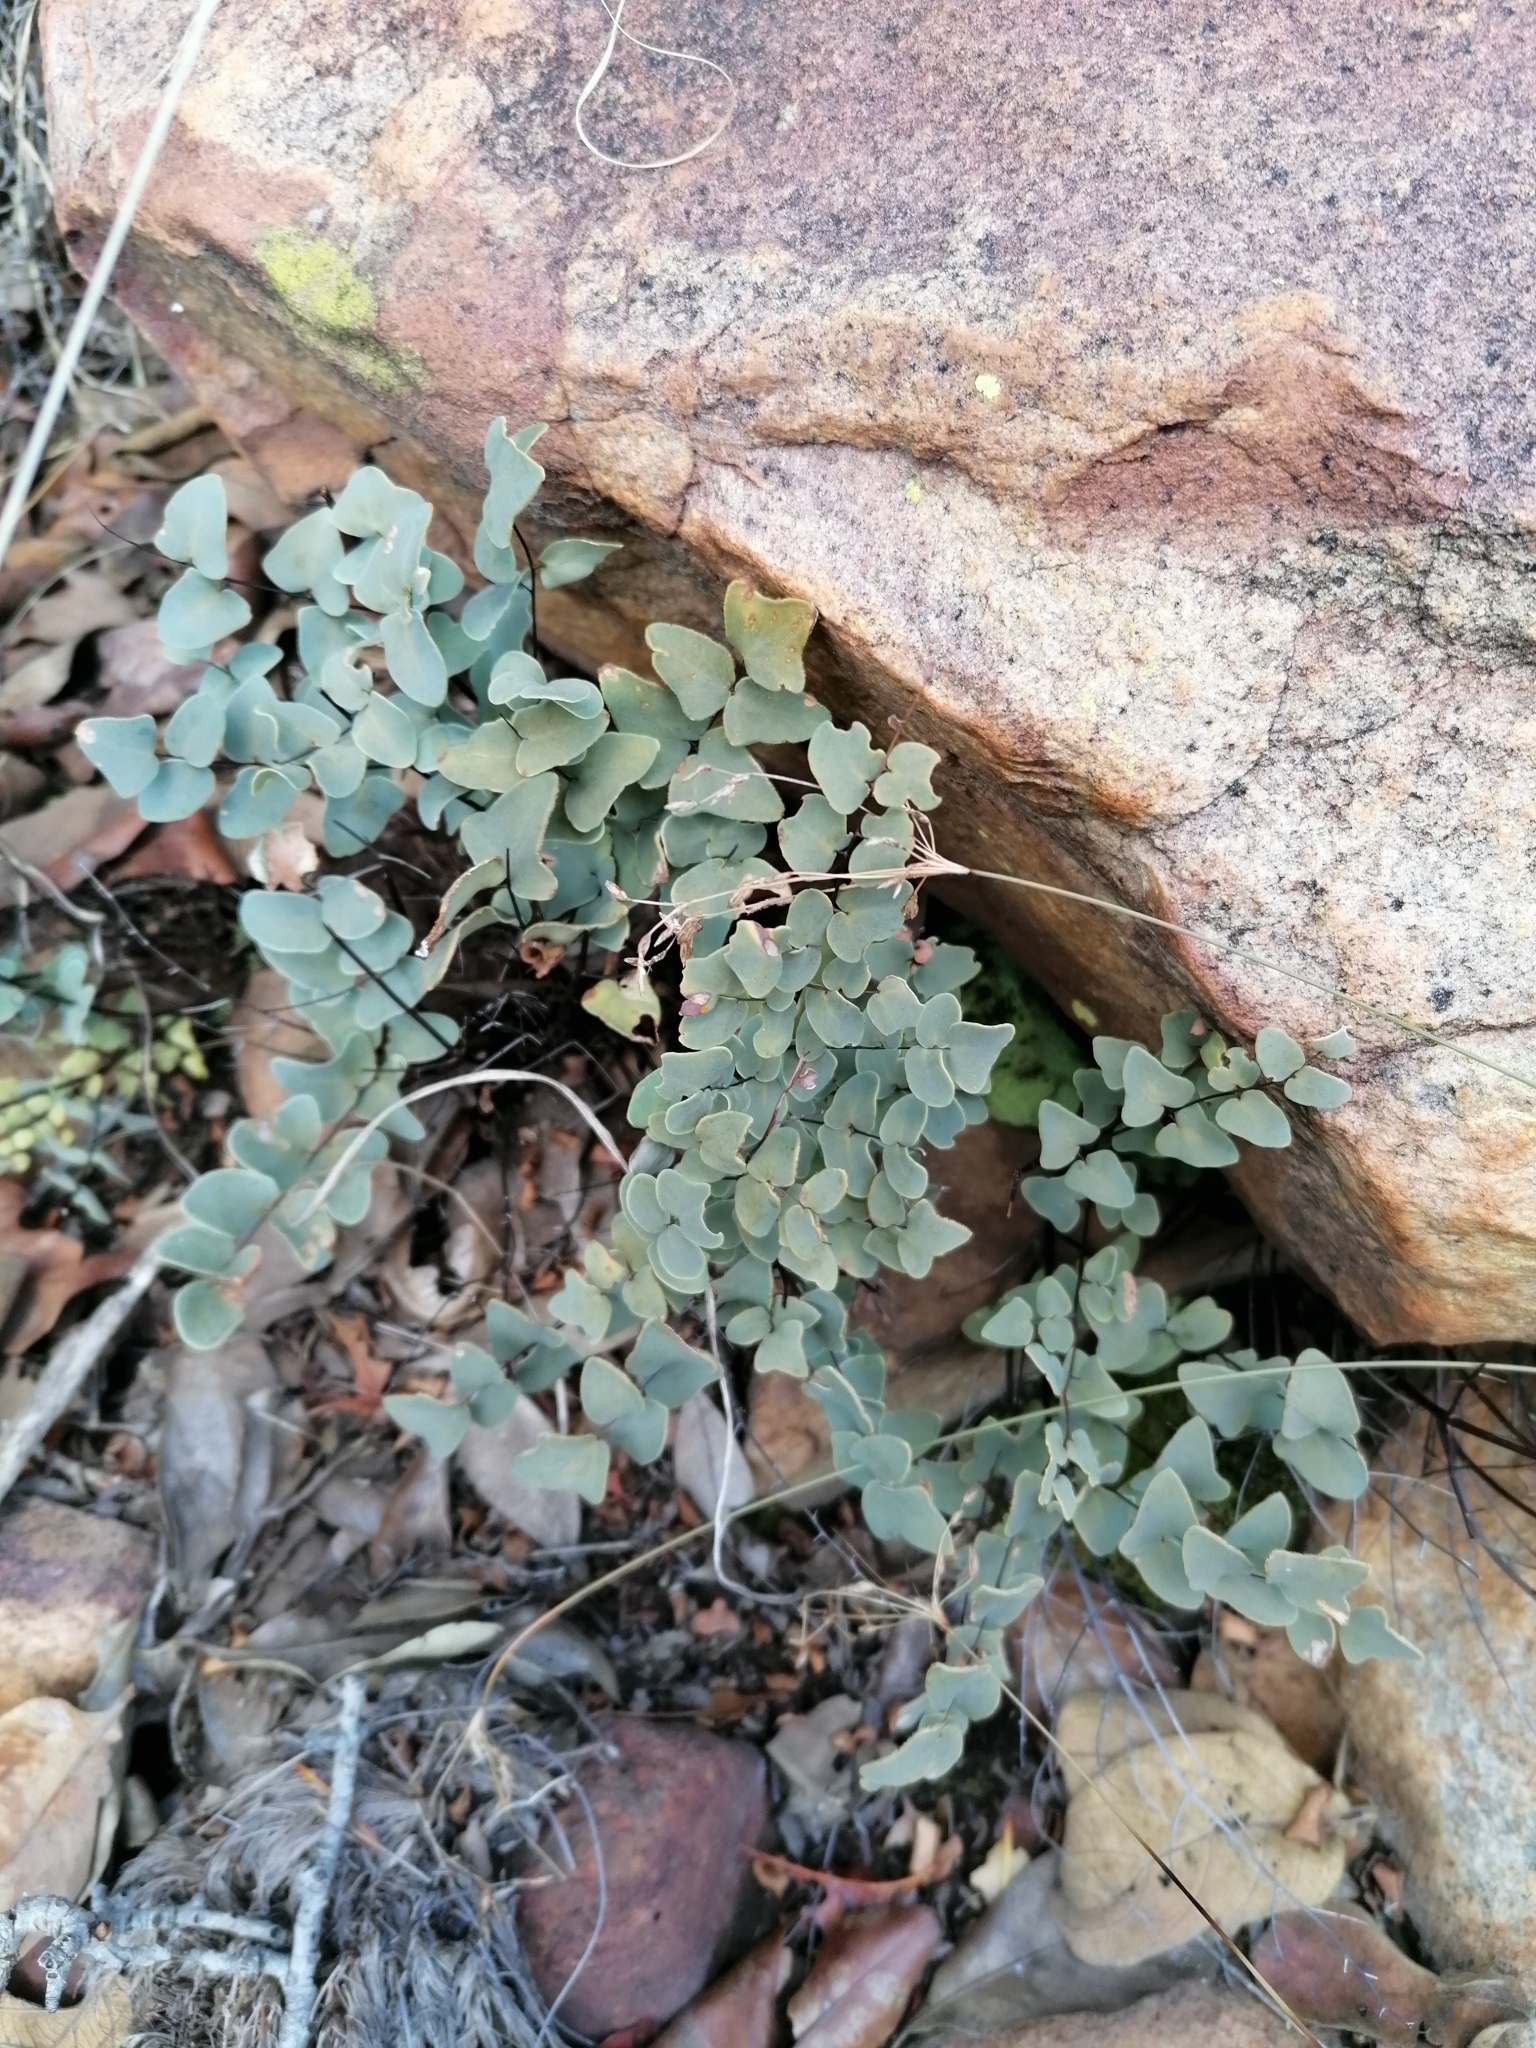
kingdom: Plantae
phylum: Tracheophyta
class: Polypodiopsida
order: Polypodiales
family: Pteridaceae
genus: Pellaea
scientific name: Pellaea calomelanos
